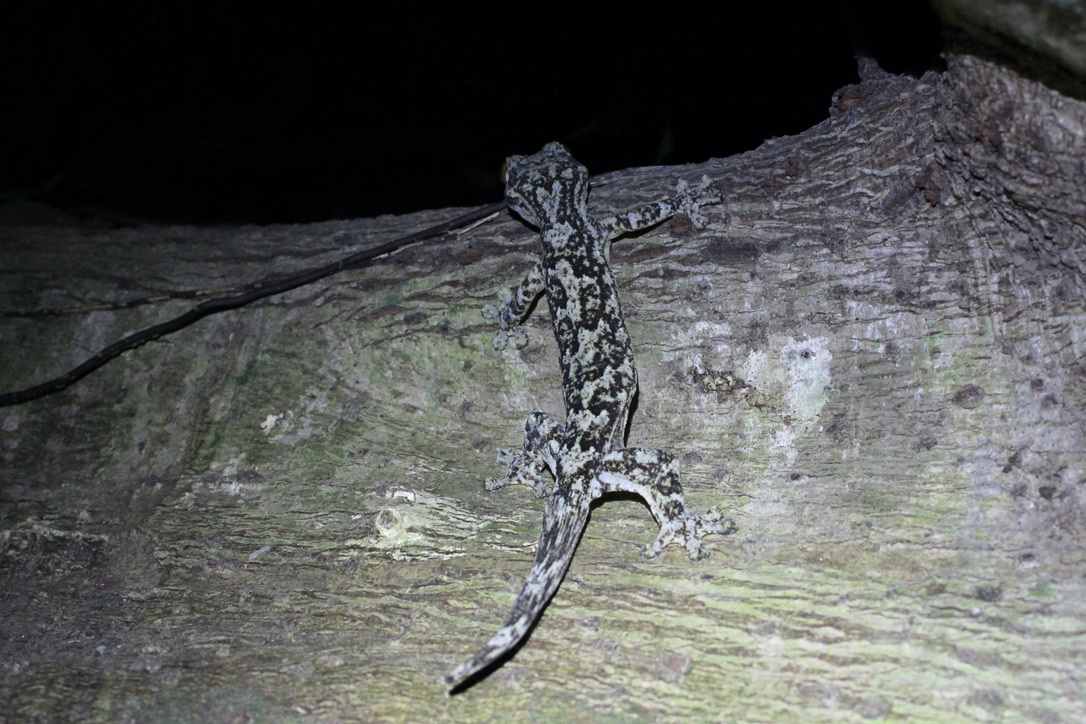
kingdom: Animalia
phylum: Chordata
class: Squamata
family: Phyllodactylidae
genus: Thecadactylus
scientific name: Thecadactylus rapicauda
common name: Turnip-tailed gecko
